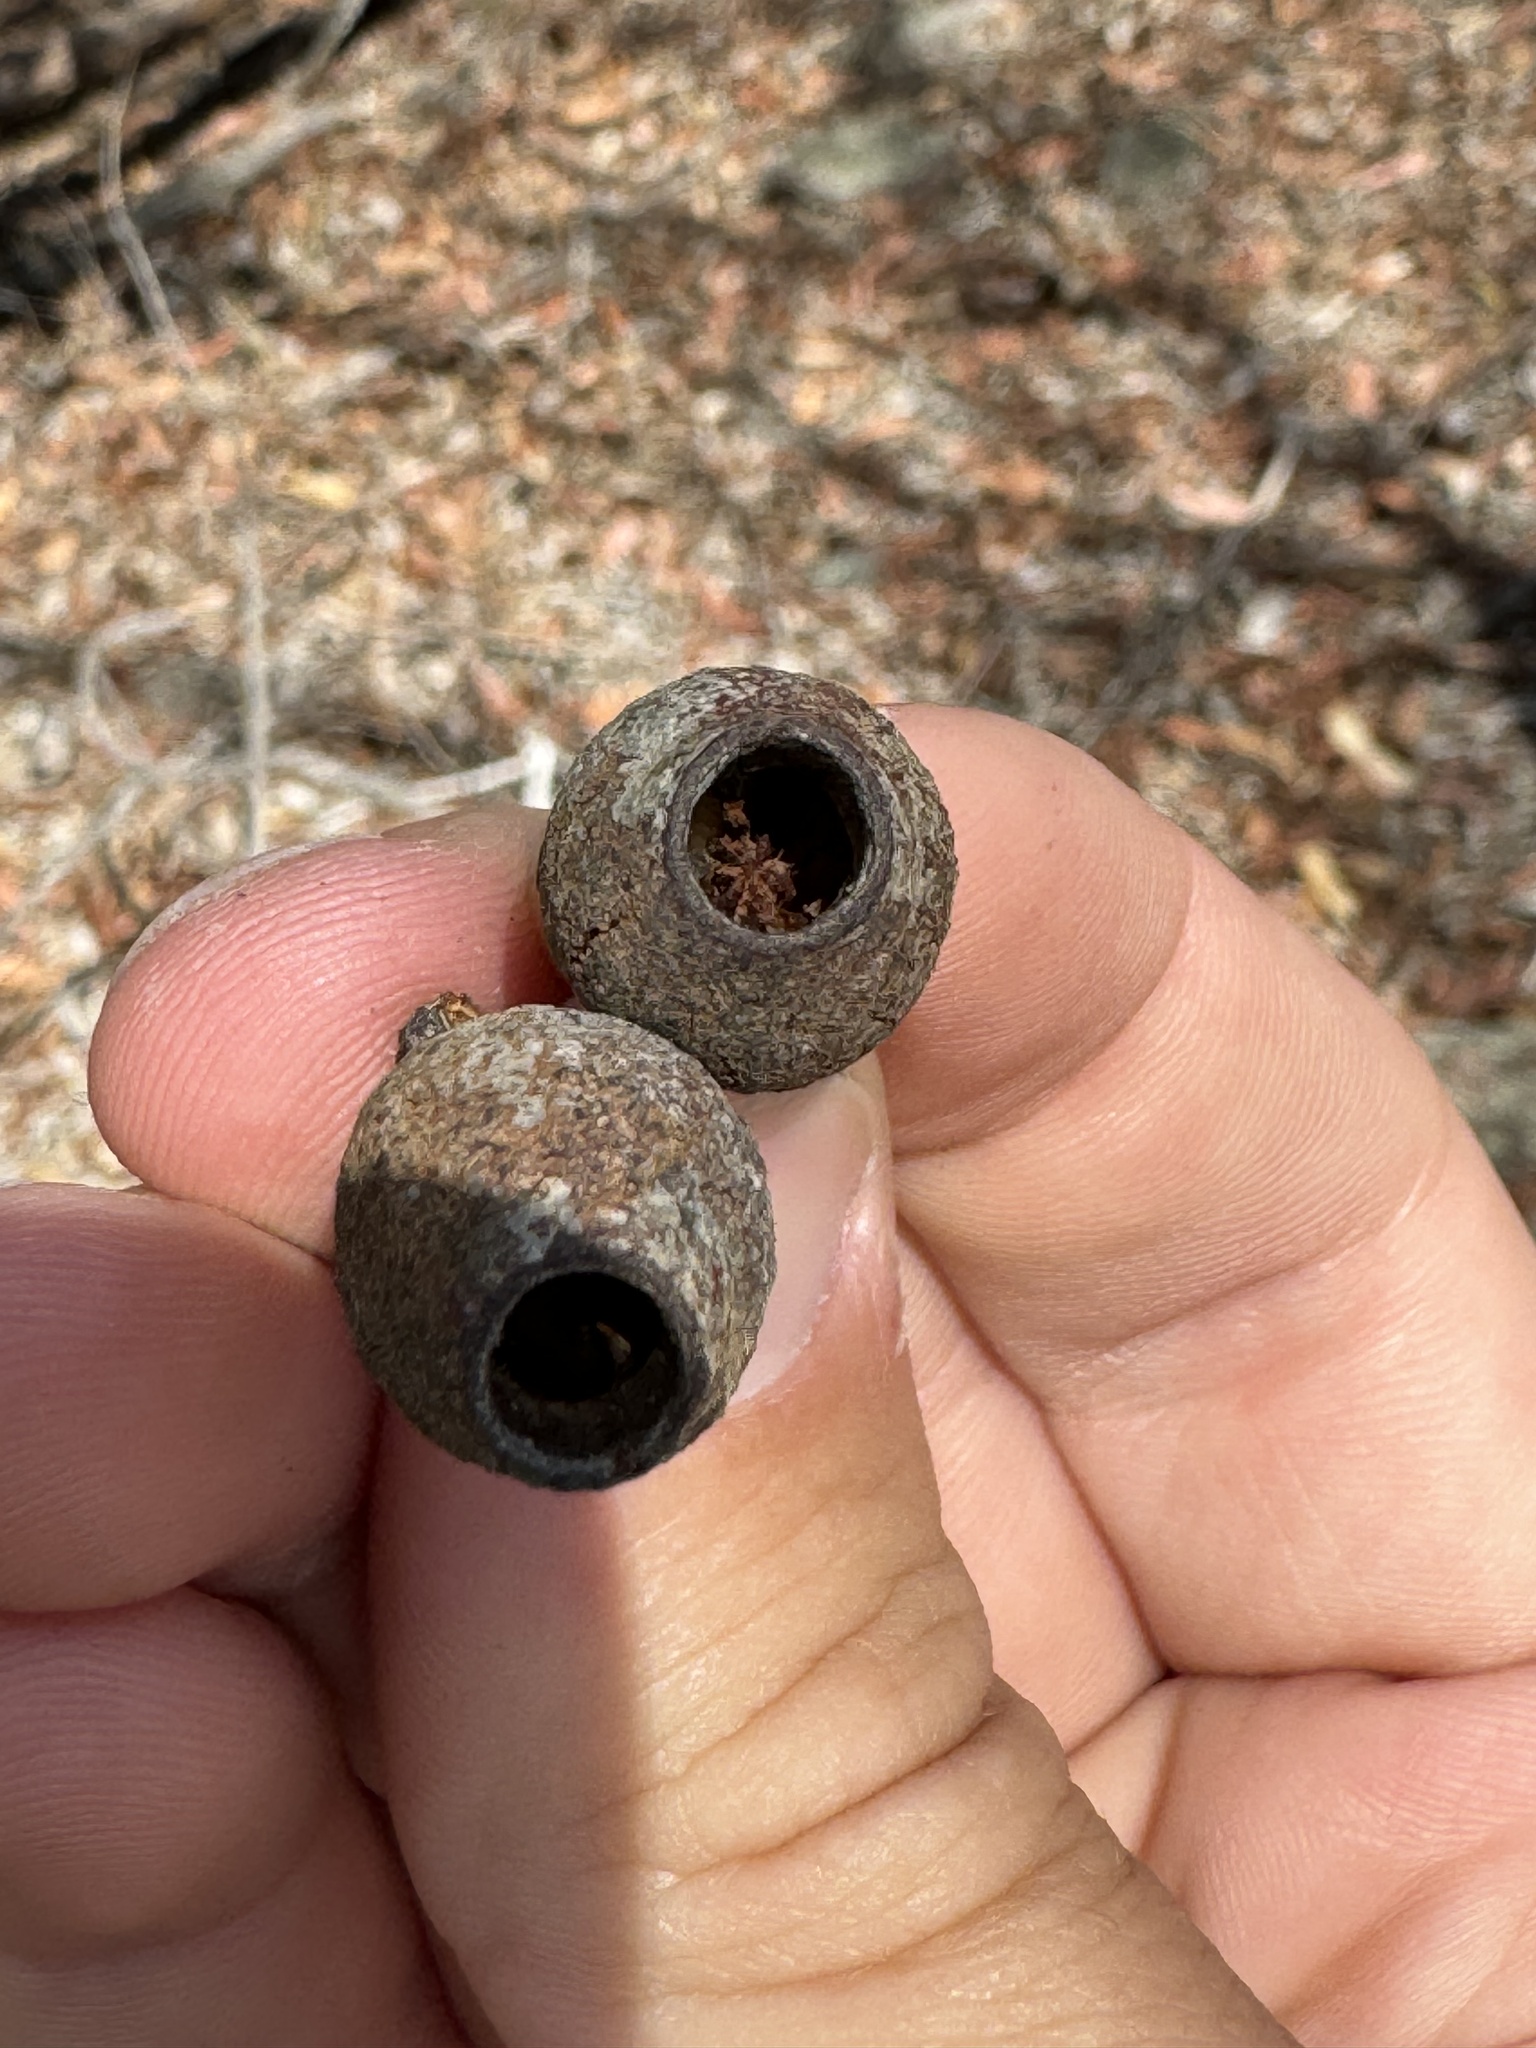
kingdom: Plantae
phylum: Tracheophyta
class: Magnoliopsida
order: Myrtales
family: Myrtaceae
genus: Corymbia
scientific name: Corymbia intermedia
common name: Pink-bloodwood
